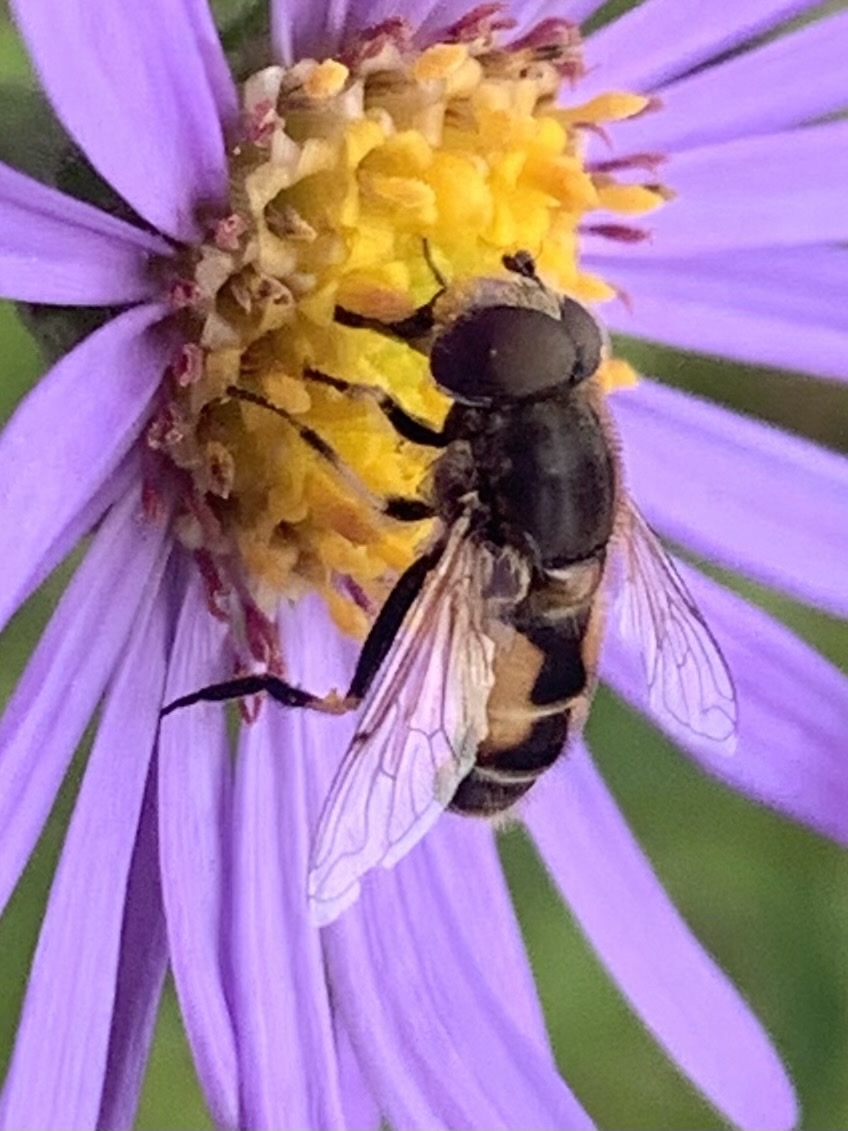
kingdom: Animalia
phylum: Arthropoda
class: Insecta
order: Diptera
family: Syrphidae
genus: Eristalis
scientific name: Eristalis arbustorum
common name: Hover fly
